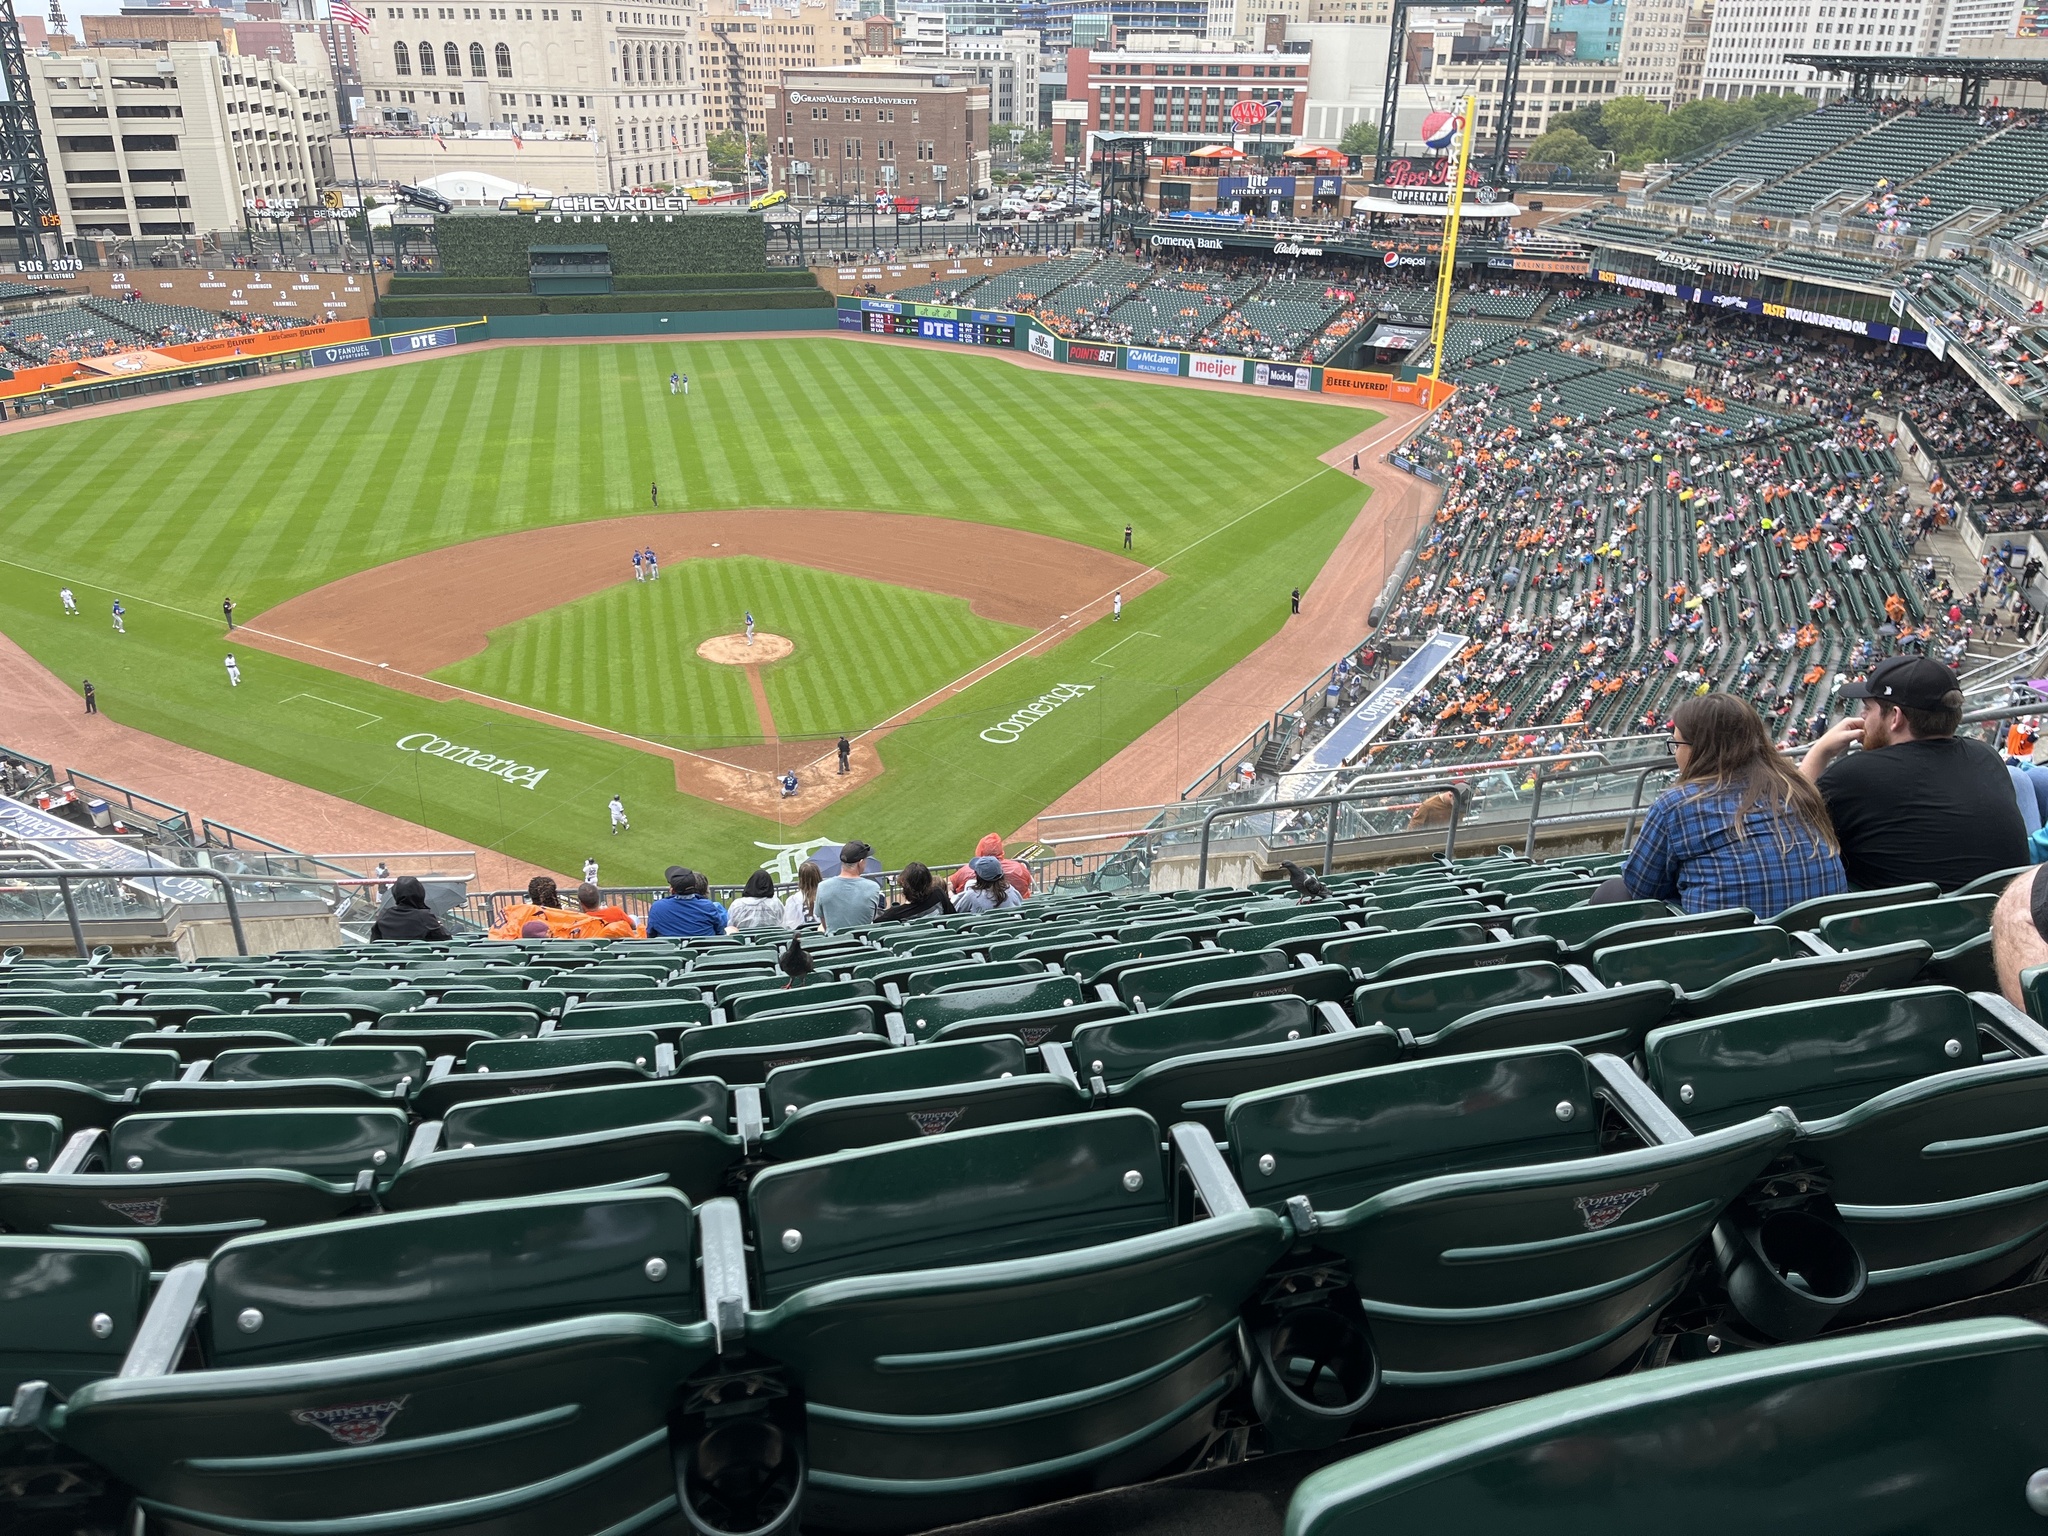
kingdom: Animalia
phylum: Chordata
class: Aves
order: Columbiformes
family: Columbidae
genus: Columba
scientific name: Columba livia
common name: Rock pigeon
